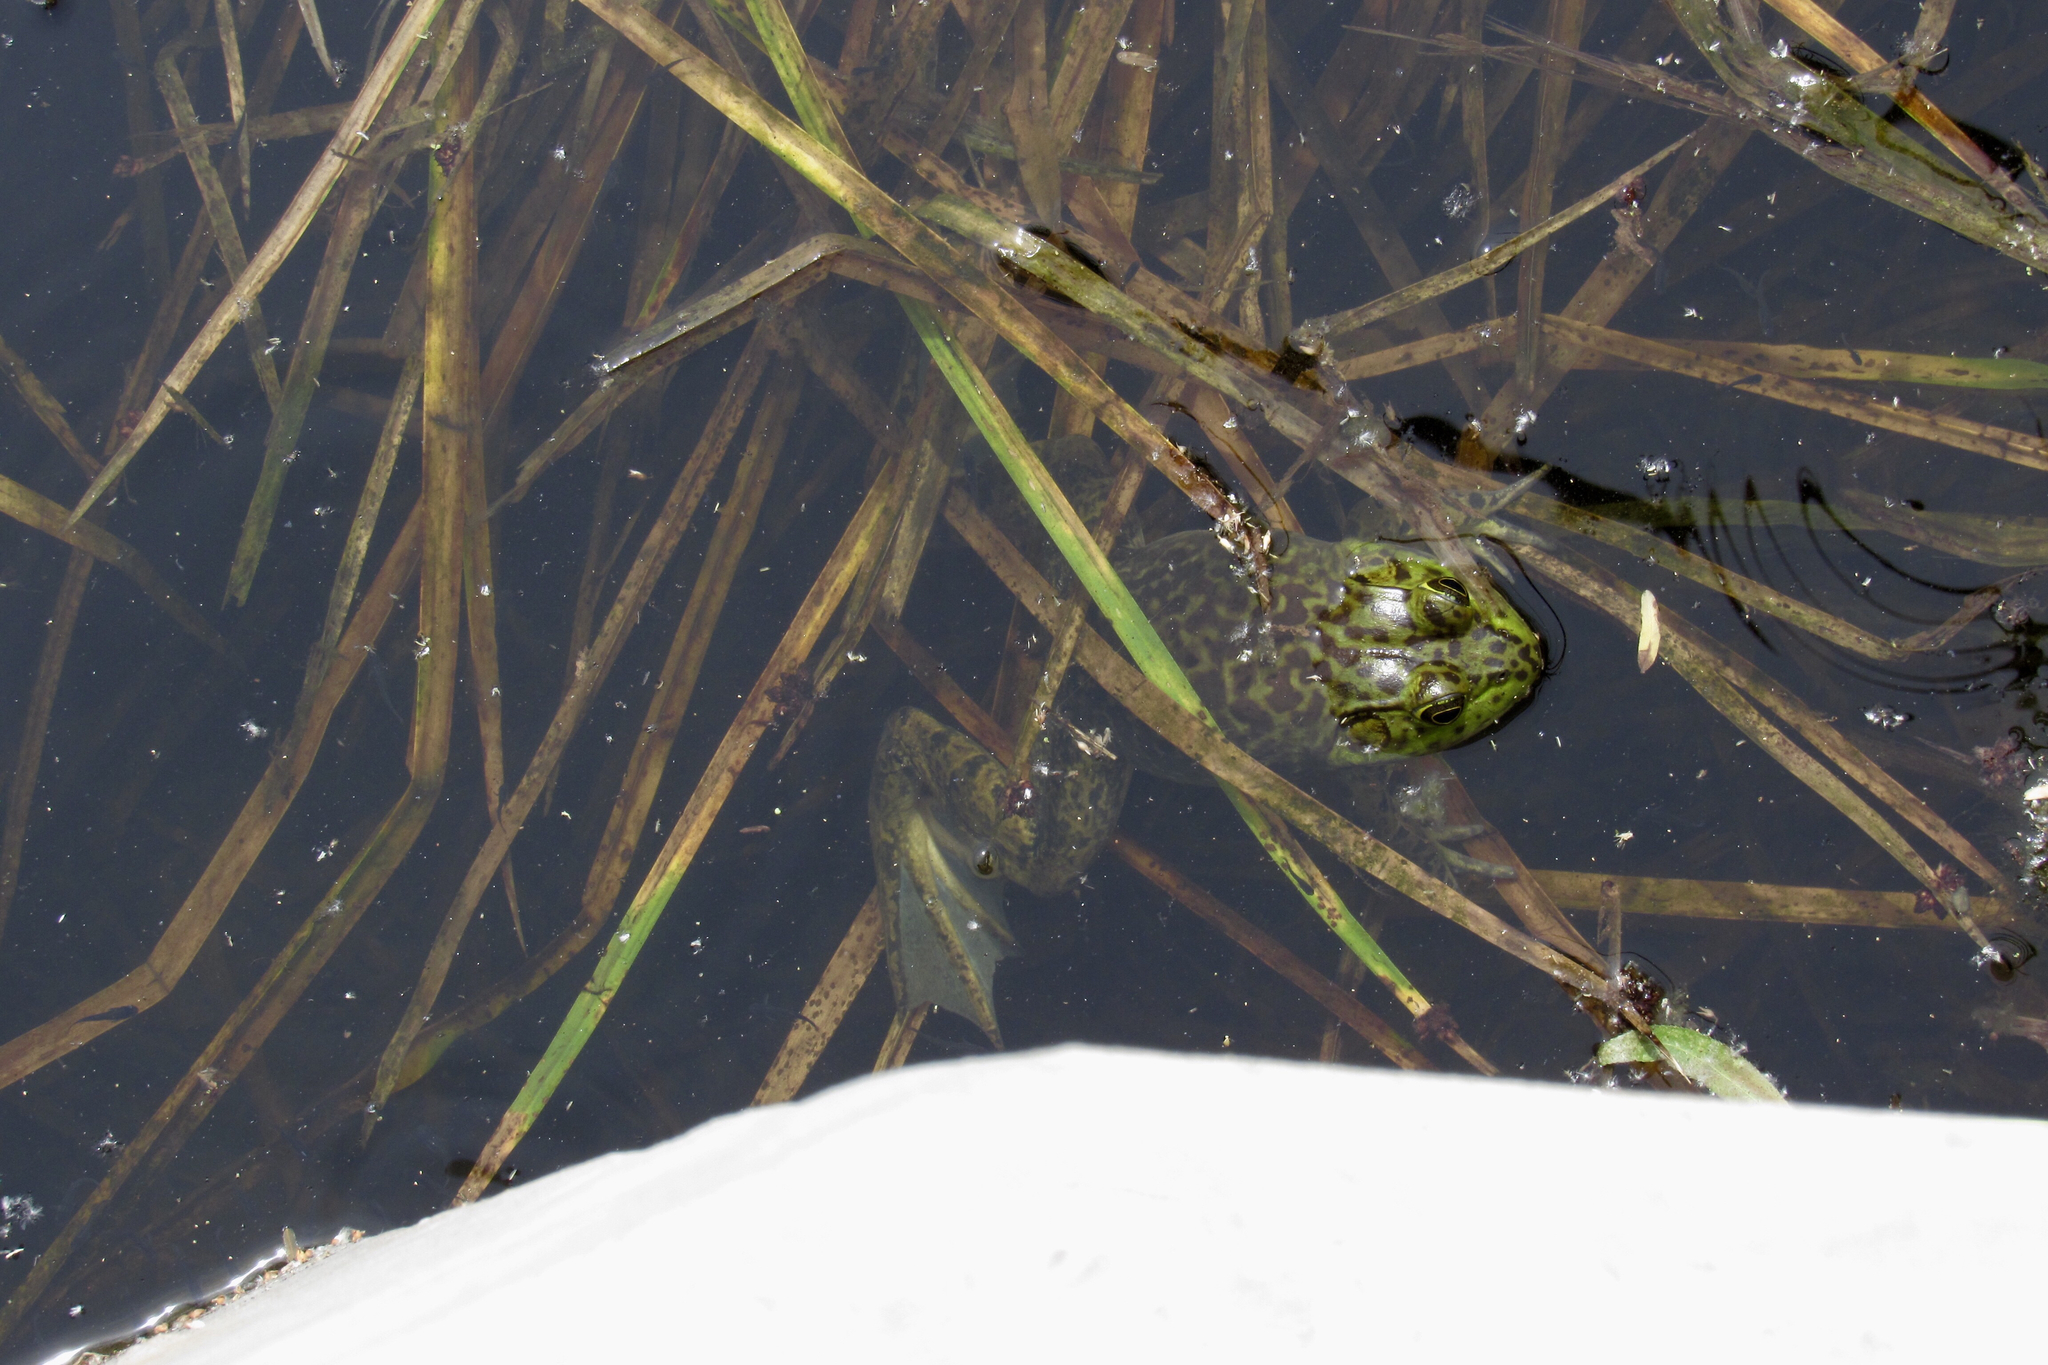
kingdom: Animalia
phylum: Chordata
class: Amphibia
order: Anura
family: Ranidae
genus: Lithobates
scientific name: Lithobates catesbeianus
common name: American bullfrog
